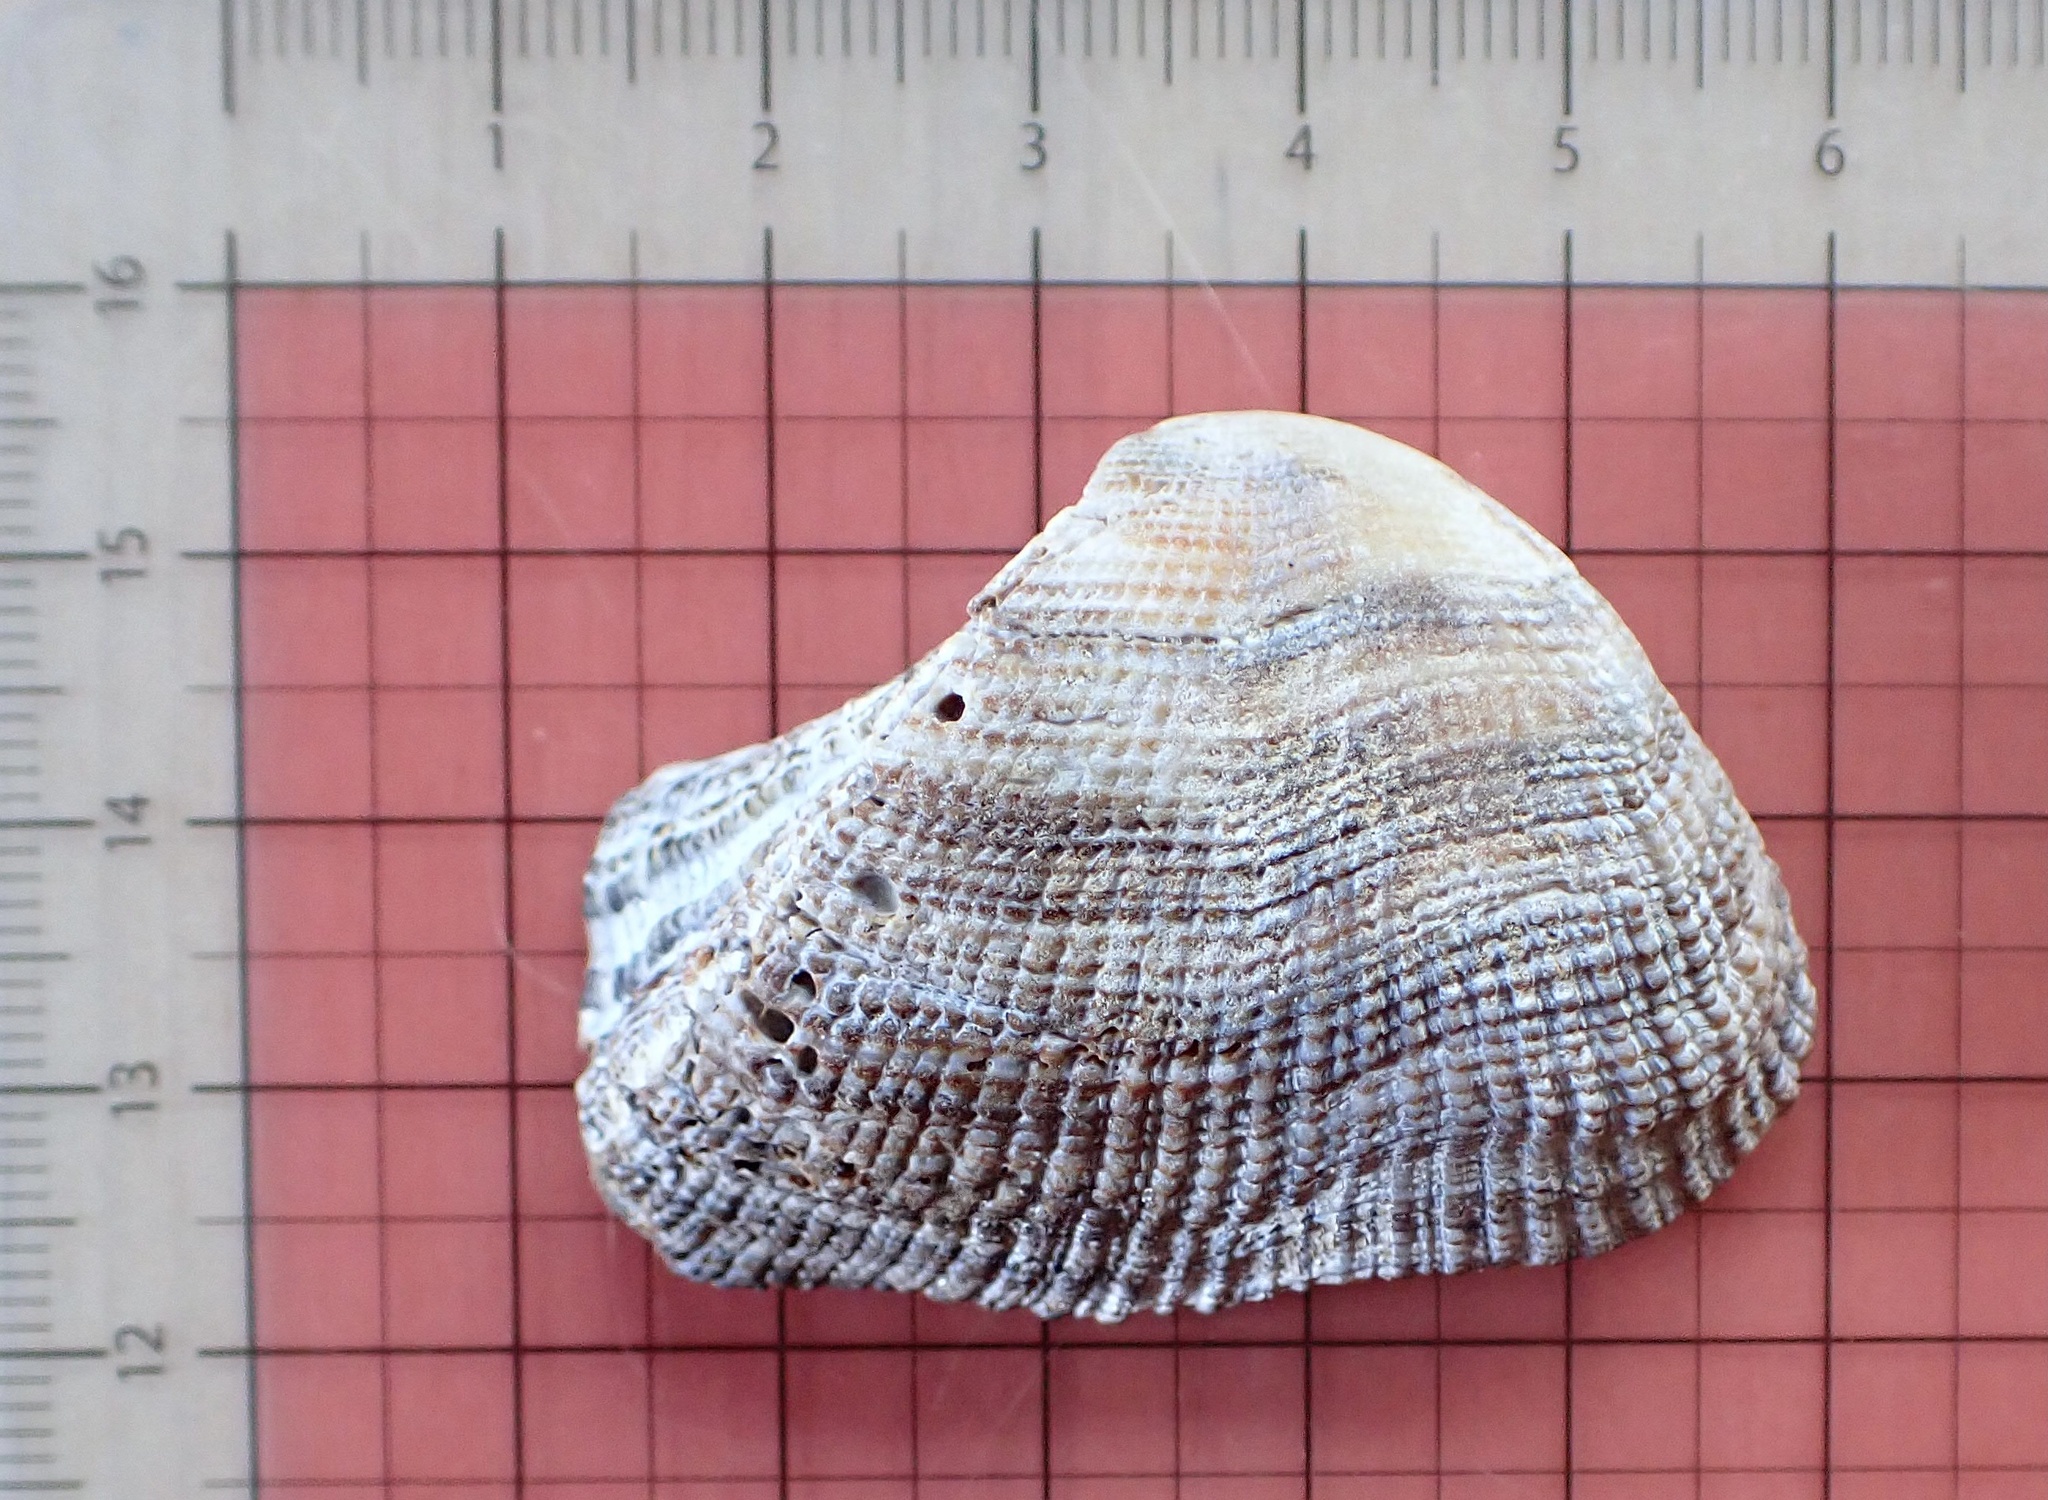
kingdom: Animalia
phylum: Mollusca
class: Bivalvia
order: Arcida
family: Arcidae
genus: Lamarcka
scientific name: Lamarcka imbricata
